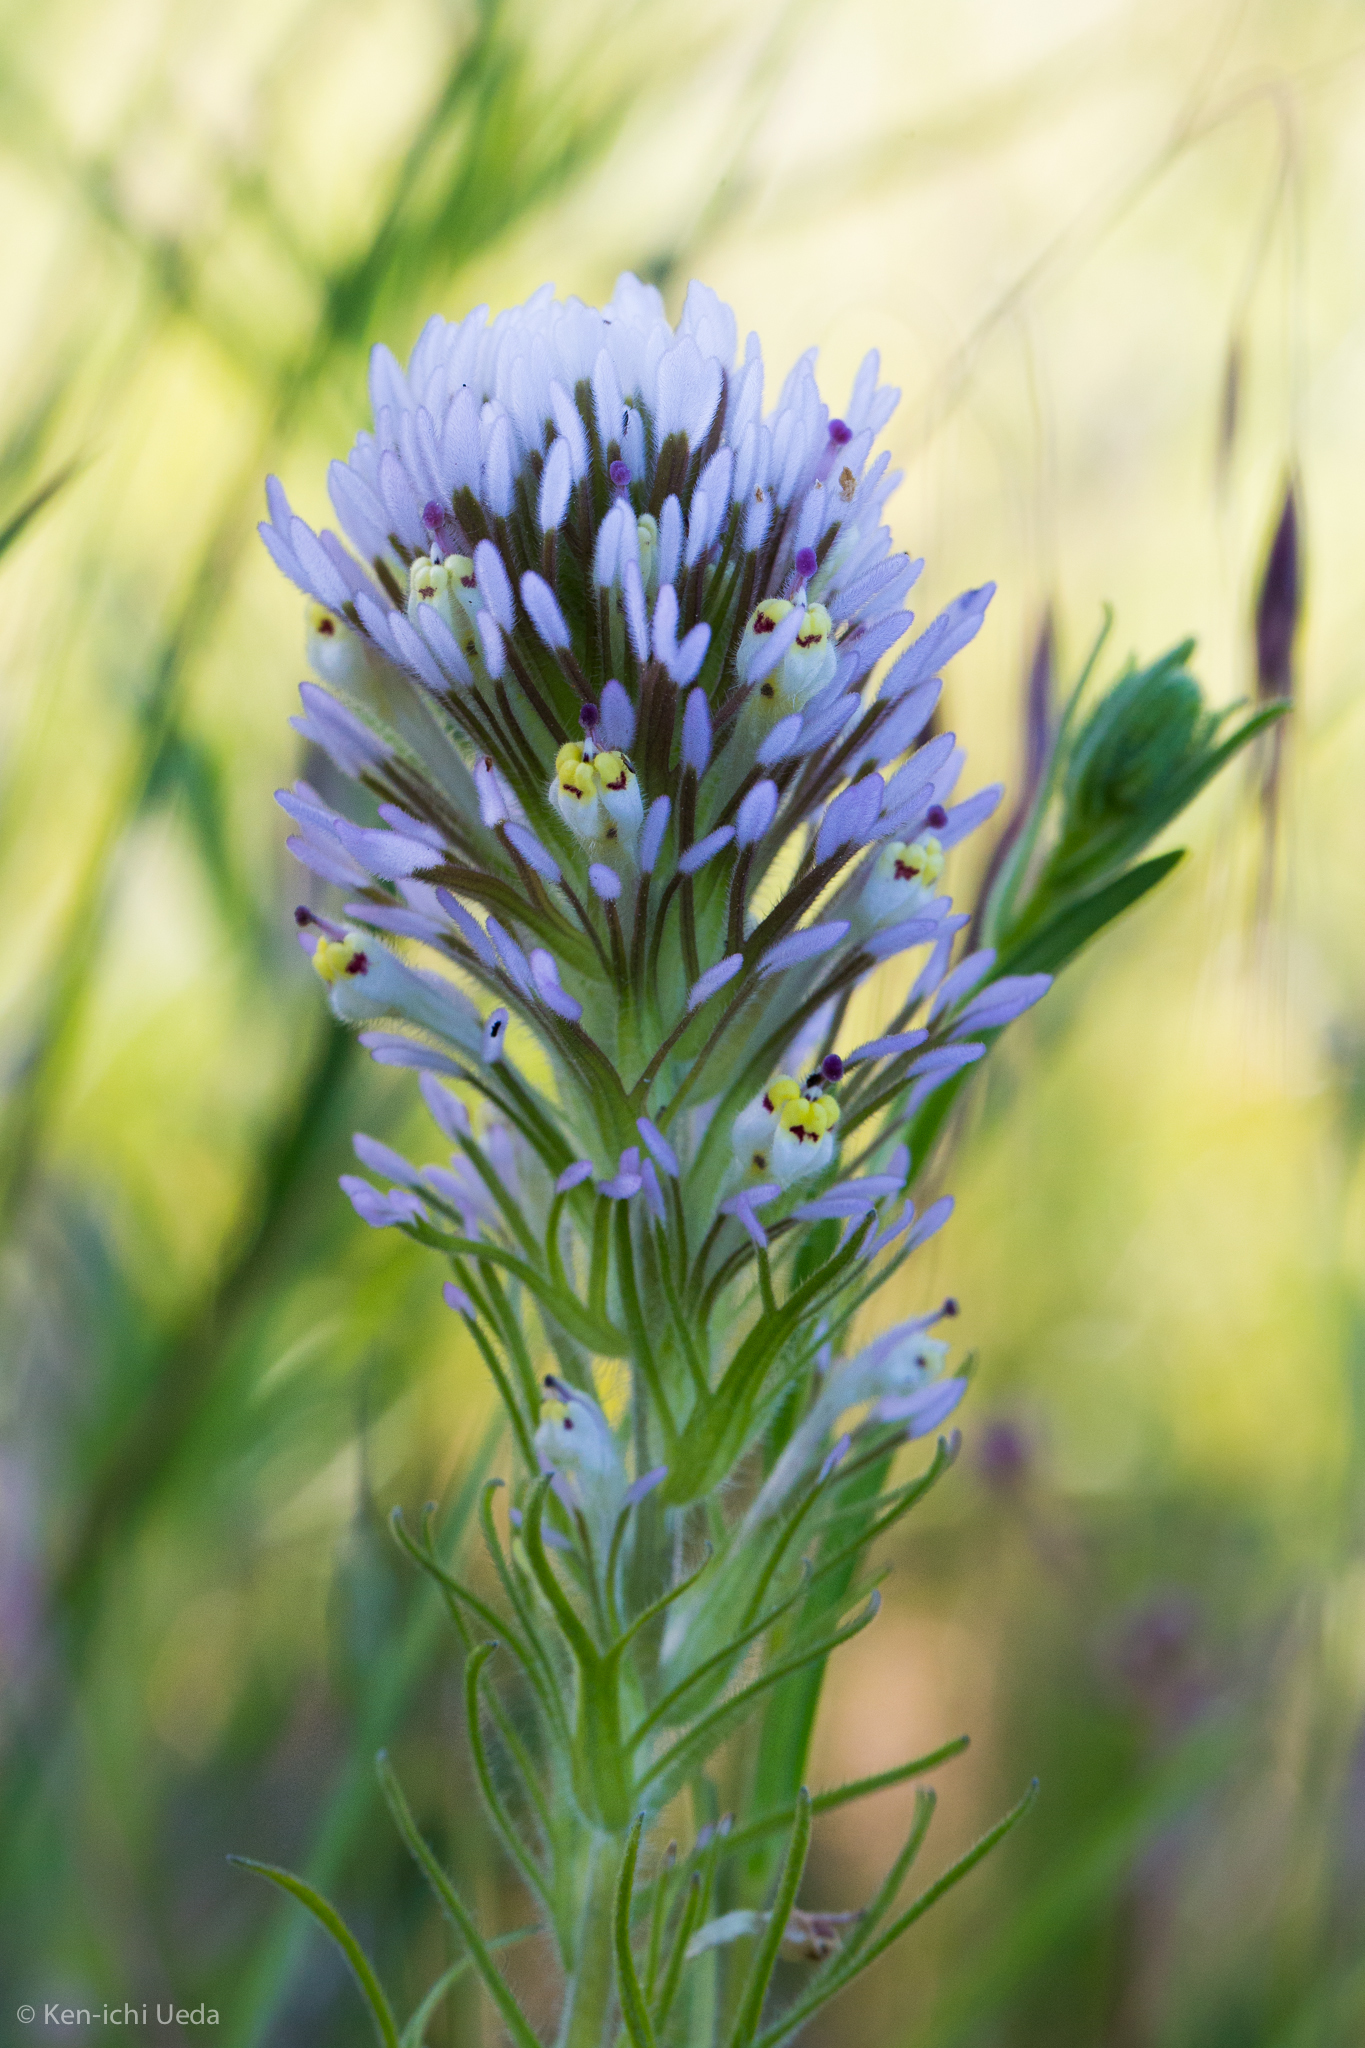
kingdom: Plantae
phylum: Tracheophyta
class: Magnoliopsida
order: Lamiales
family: Orobanchaceae
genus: Castilleja
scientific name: Castilleja lineariloba
